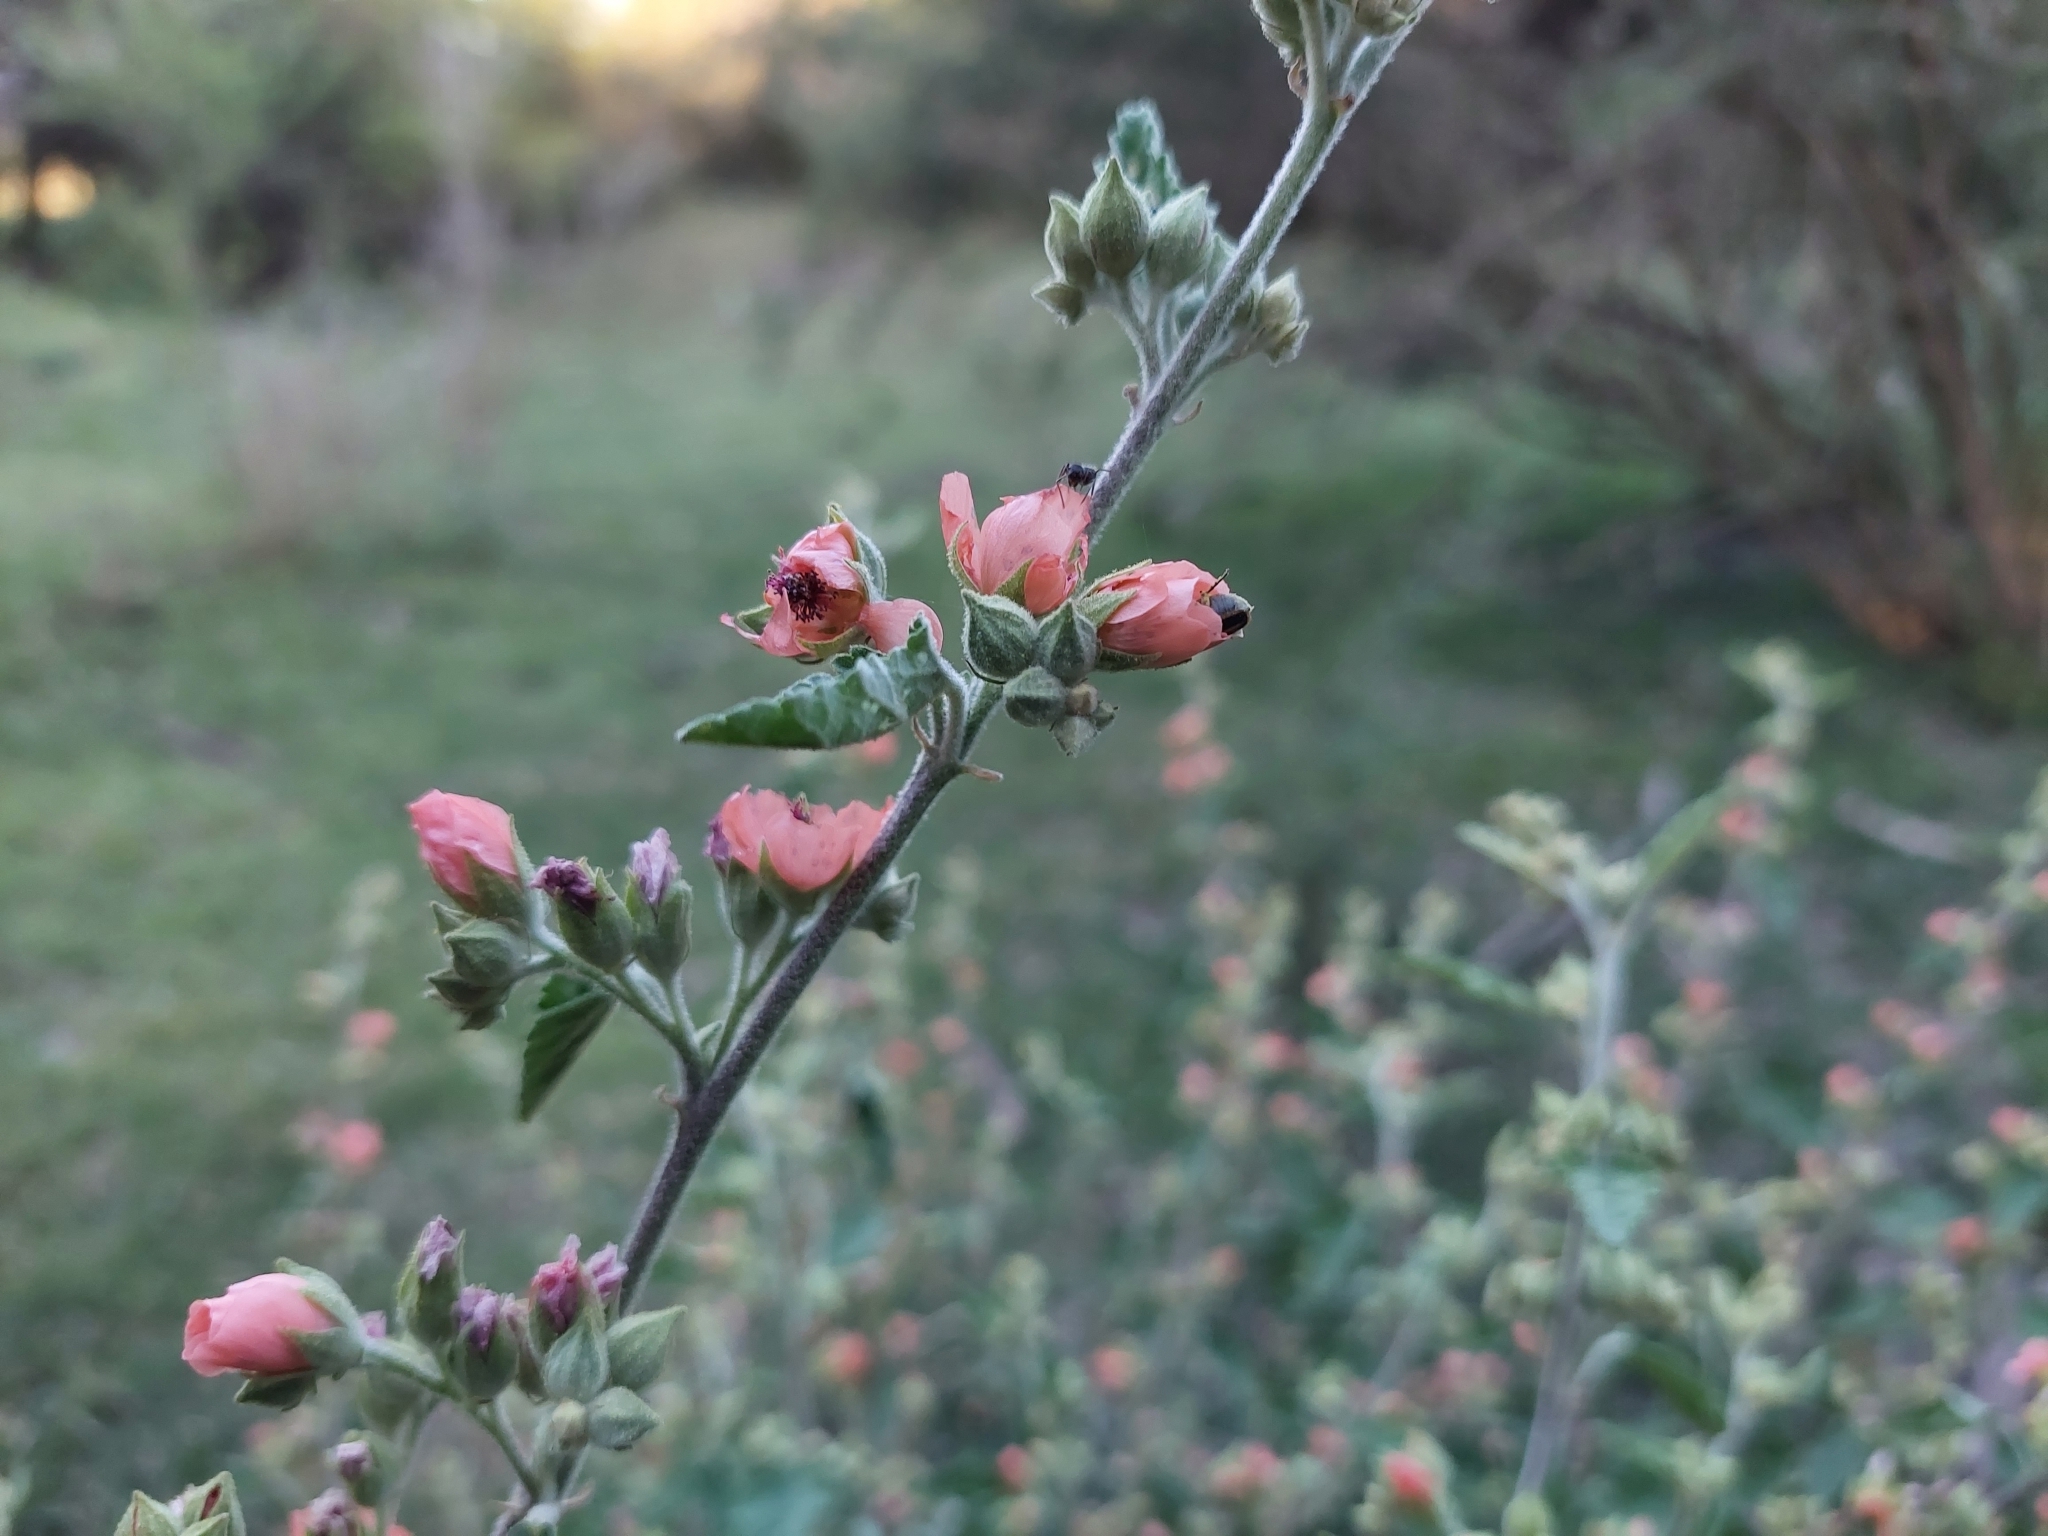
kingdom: Plantae
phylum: Tracheophyta
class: Magnoliopsida
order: Malvales
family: Malvaceae
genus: Sphaeralcea
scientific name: Sphaeralcea bonariensis
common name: Latin globemallow
